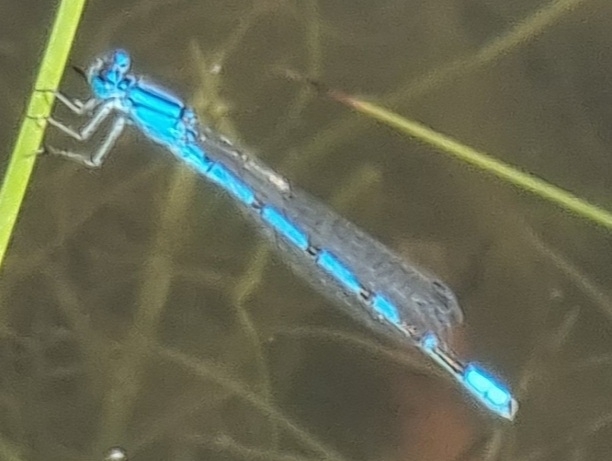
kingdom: Animalia
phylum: Arthropoda
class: Insecta
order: Odonata
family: Coenagrionidae
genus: Enallagma
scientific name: Enallagma cyathigerum
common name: Common blue damselfly
